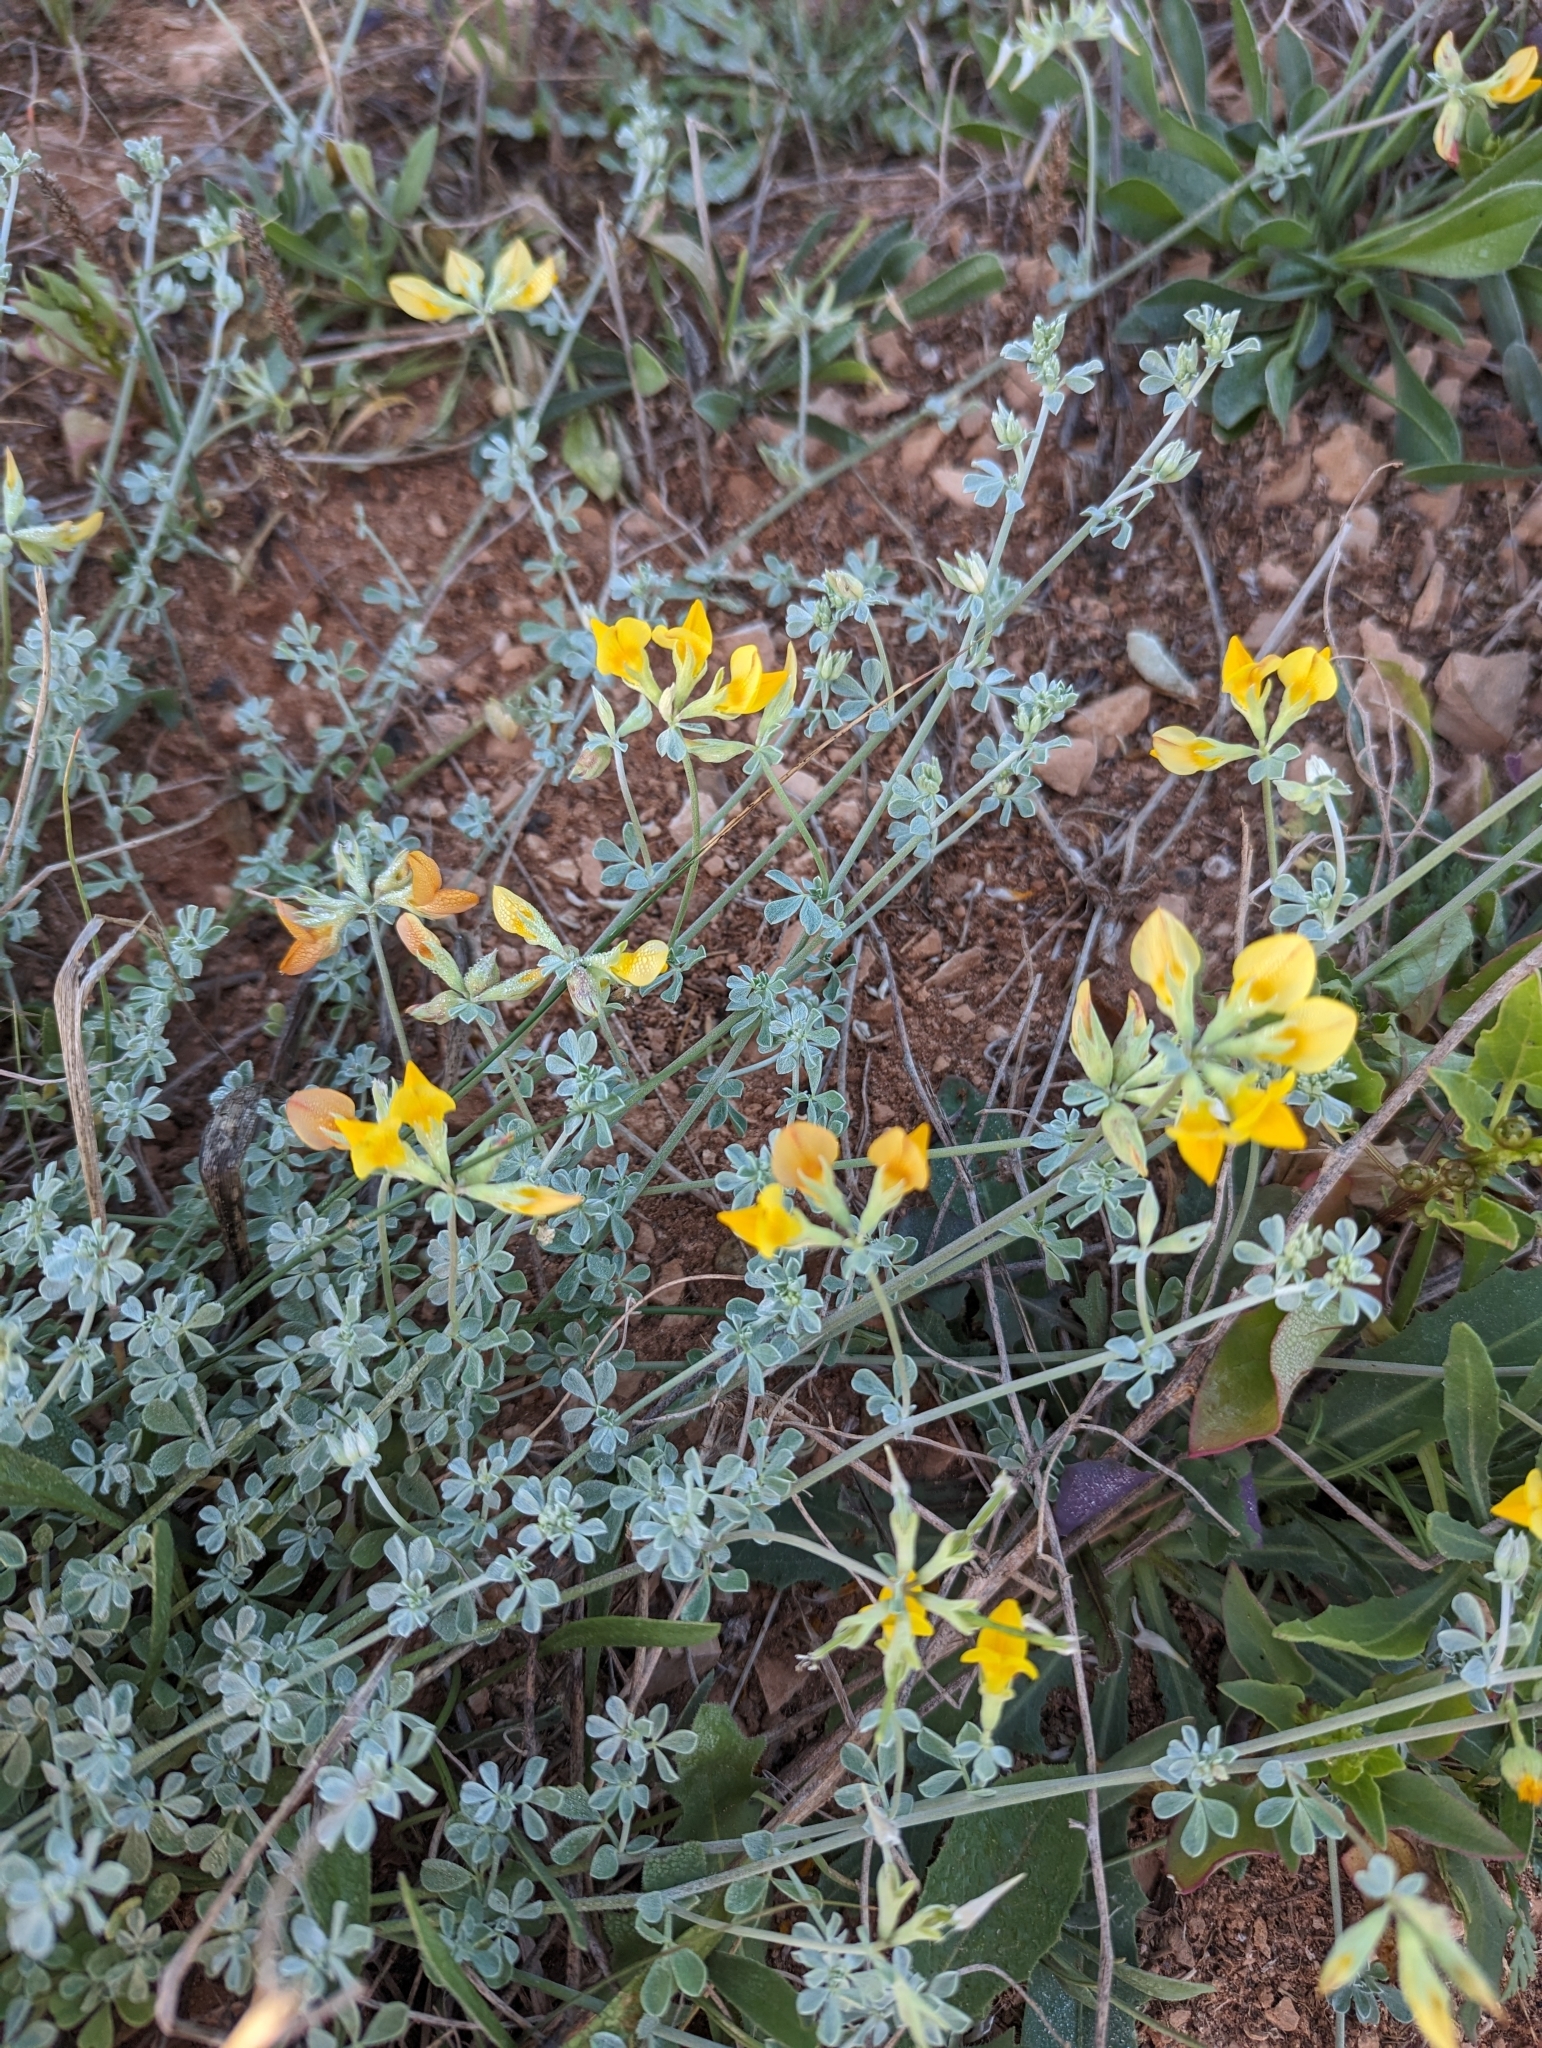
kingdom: Plantae
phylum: Tracheophyta
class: Magnoliopsida
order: Fabales
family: Fabaceae
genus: Lotus
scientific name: Lotus lancerottensis
